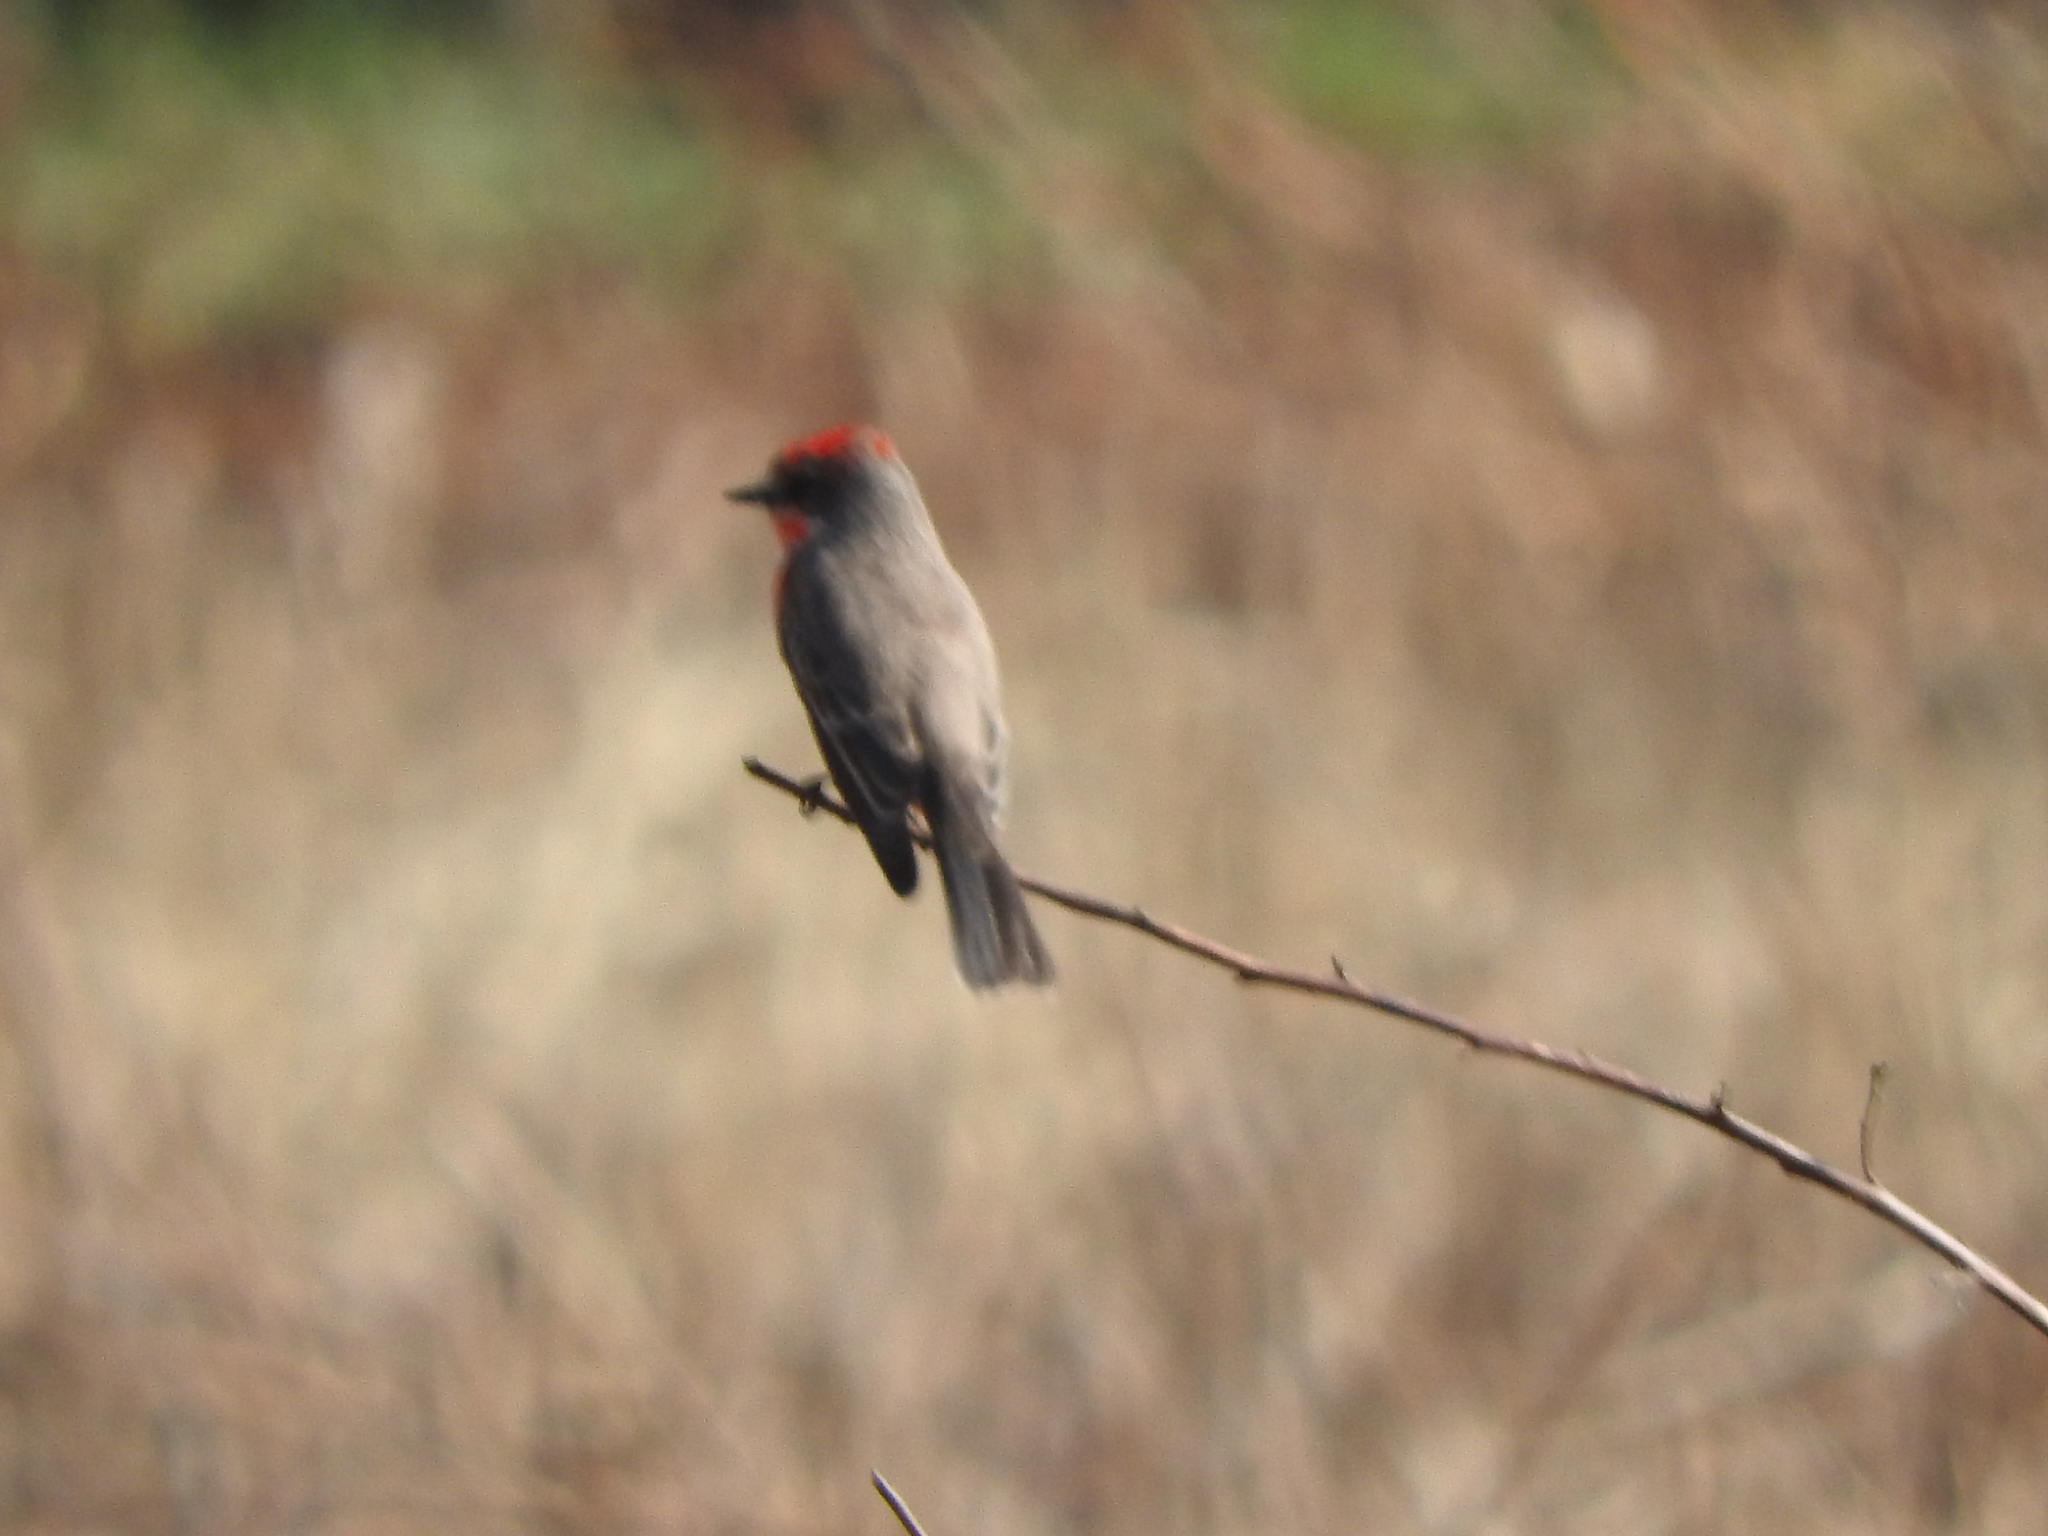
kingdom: Animalia
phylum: Chordata
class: Aves
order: Passeriformes
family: Tyrannidae
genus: Pyrocephalus
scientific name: Pyrocephalus rubinus
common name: Vermilion flycatcher
